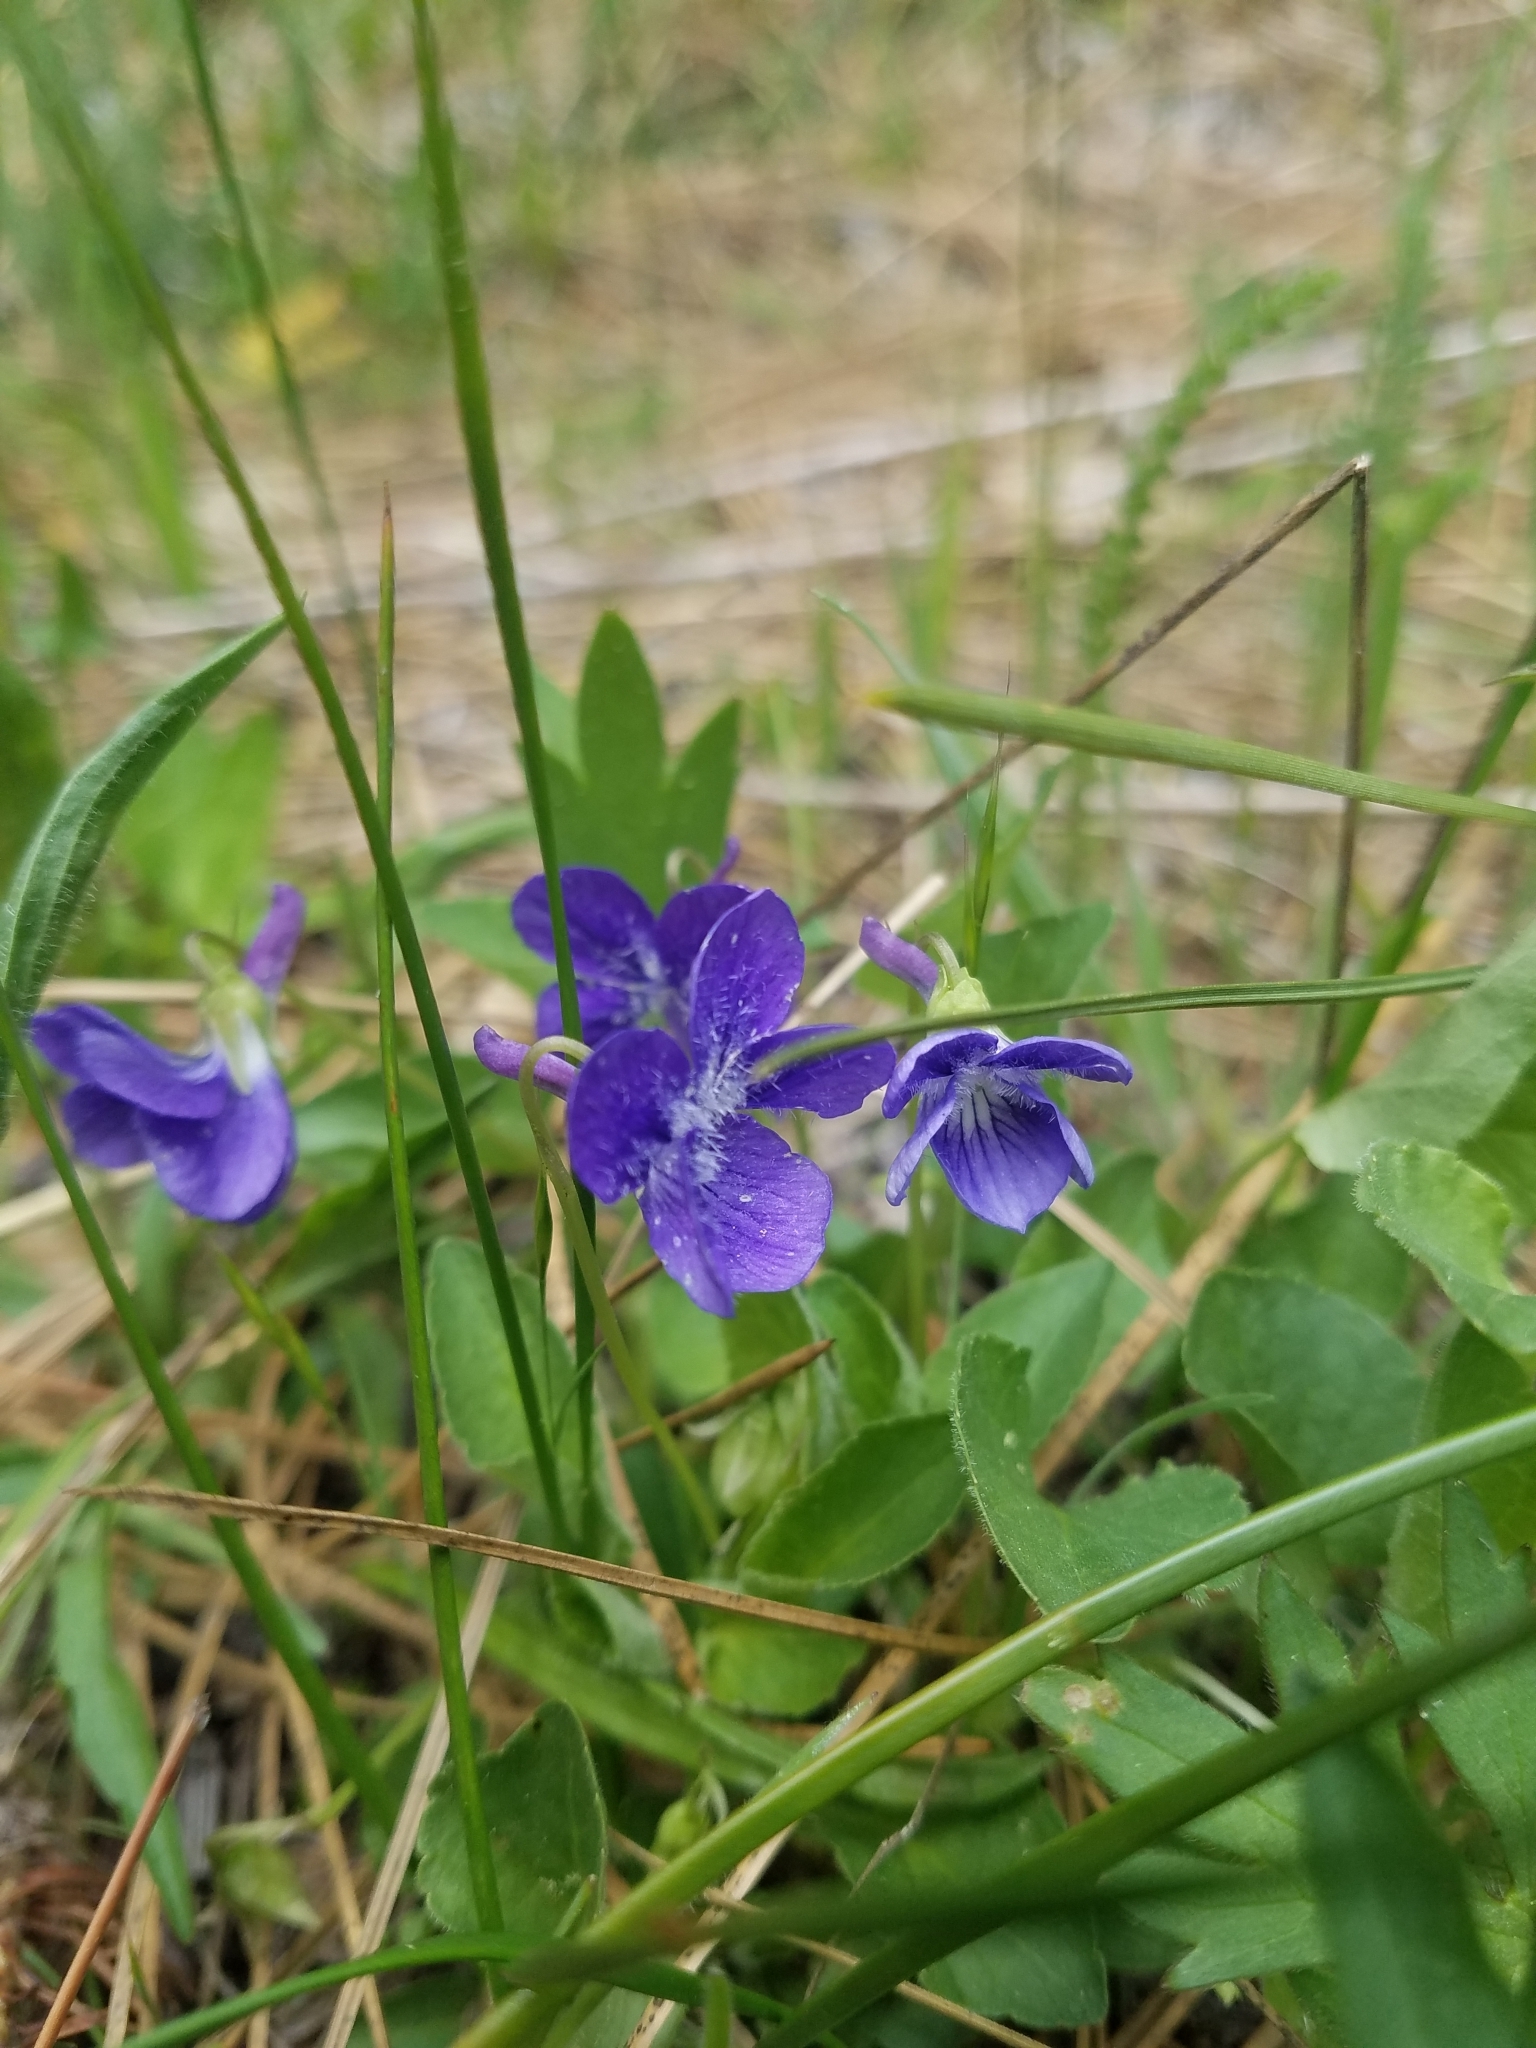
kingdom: Plantae
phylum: Tracheophyta
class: Magnoliopsida
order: Malpighiales
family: Violaceae
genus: Viola
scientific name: Viola adunca
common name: Sand violet
